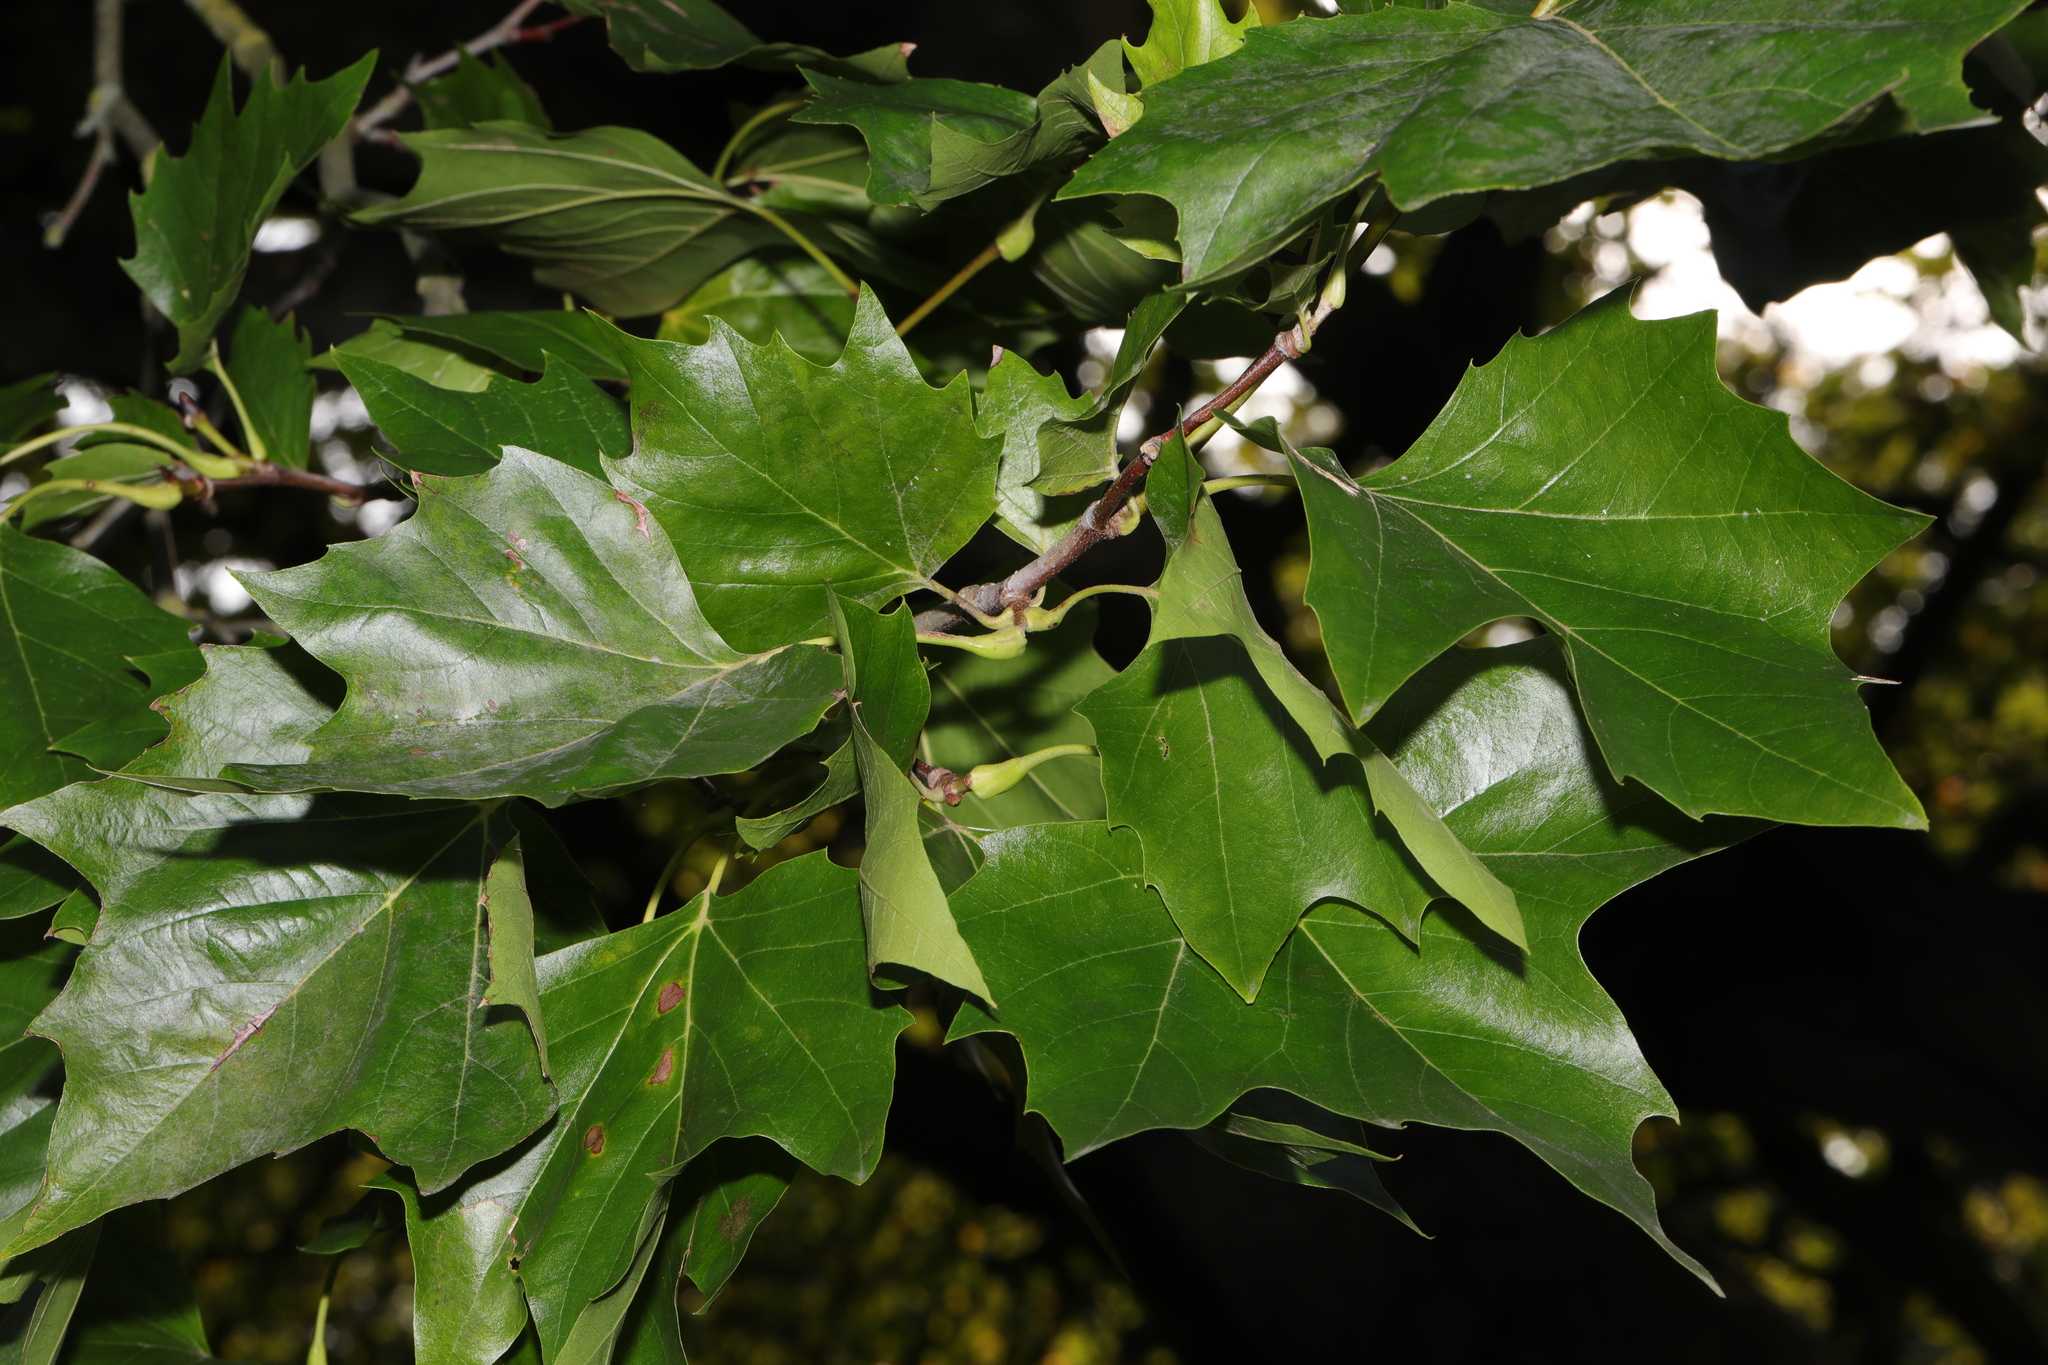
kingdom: Plantae
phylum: Tracheophyta
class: Magnoliopsida
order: Proteales
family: Platanaceae
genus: Platanus
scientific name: Platanus hispanica
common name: London plane
